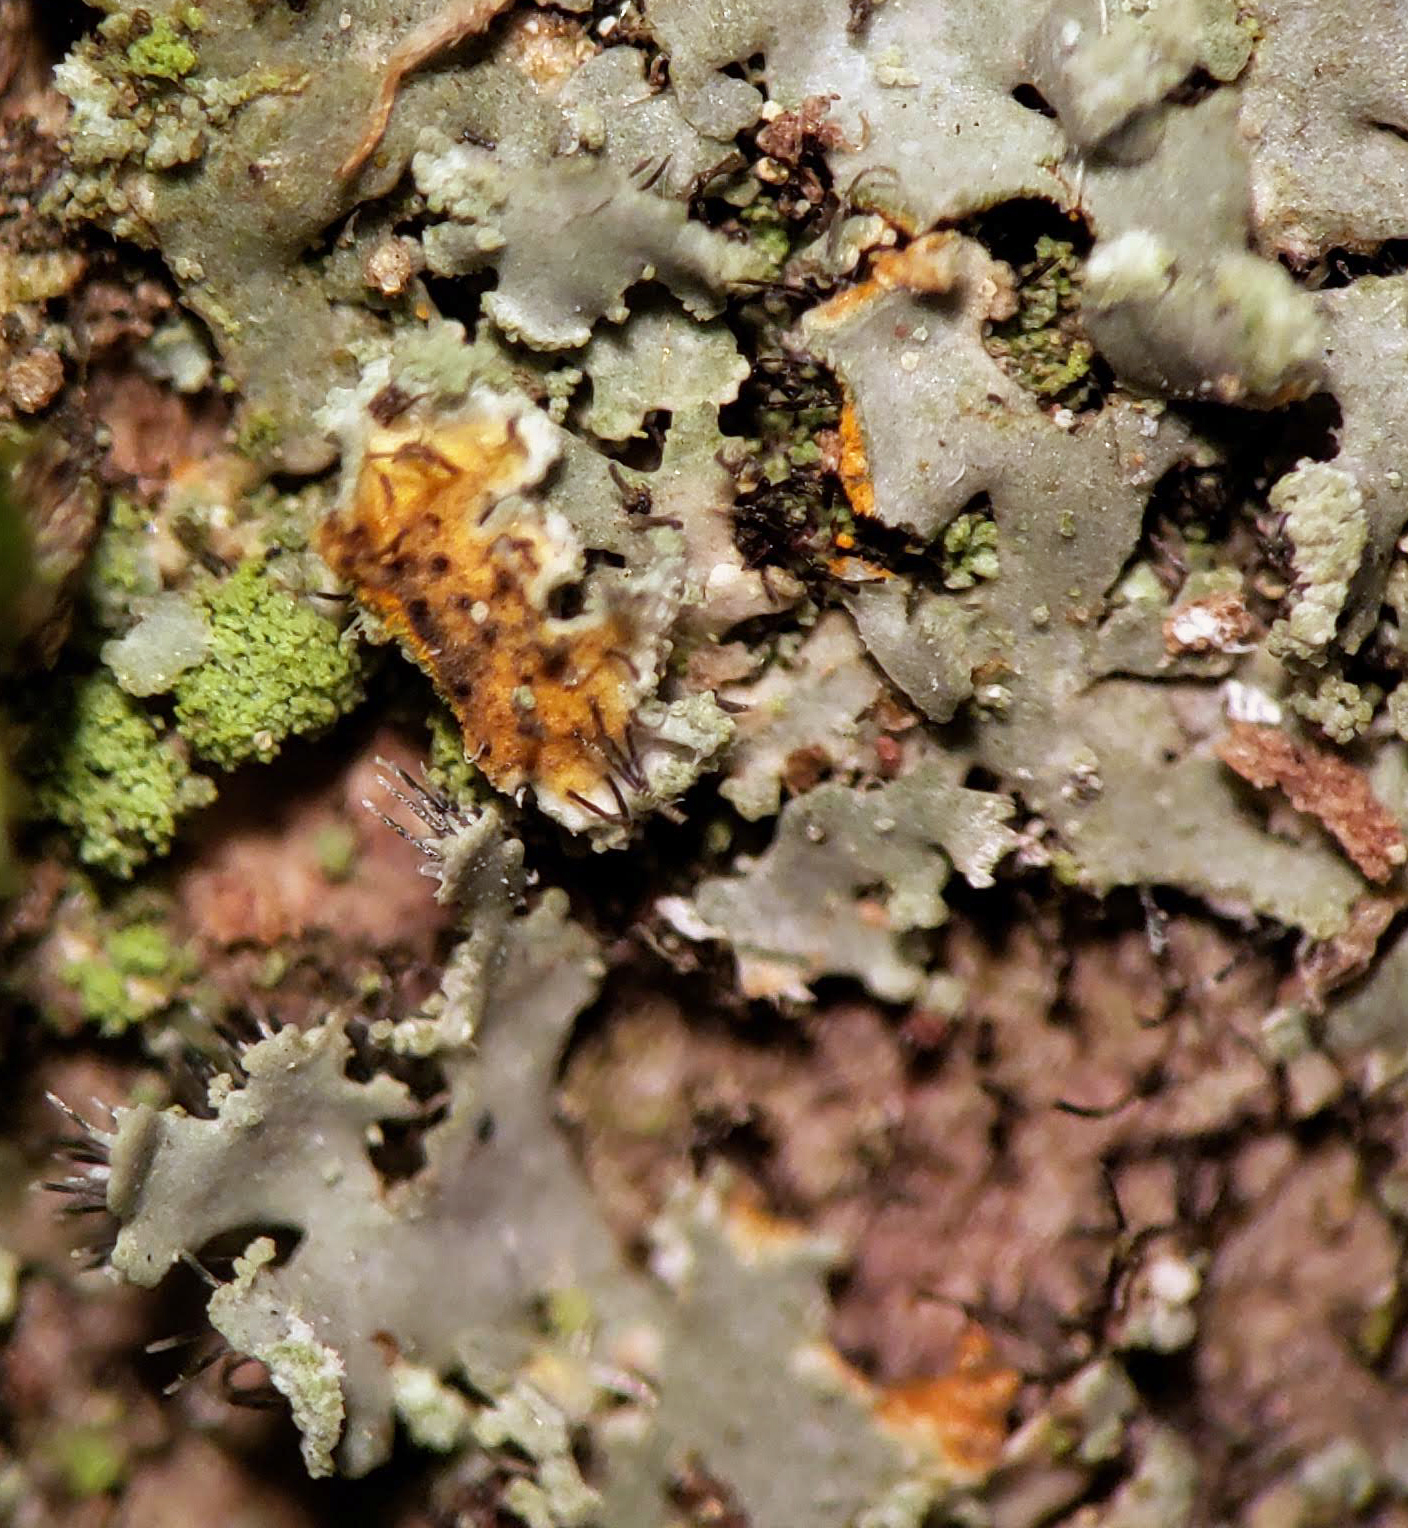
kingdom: Fungi
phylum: Ascomycota
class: Lecanoromycetes
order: Caliciales
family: Physciaceae
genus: Phaeophyscia
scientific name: Phaeophyscia rubropulchra
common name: Orange-cored shadow lichen
